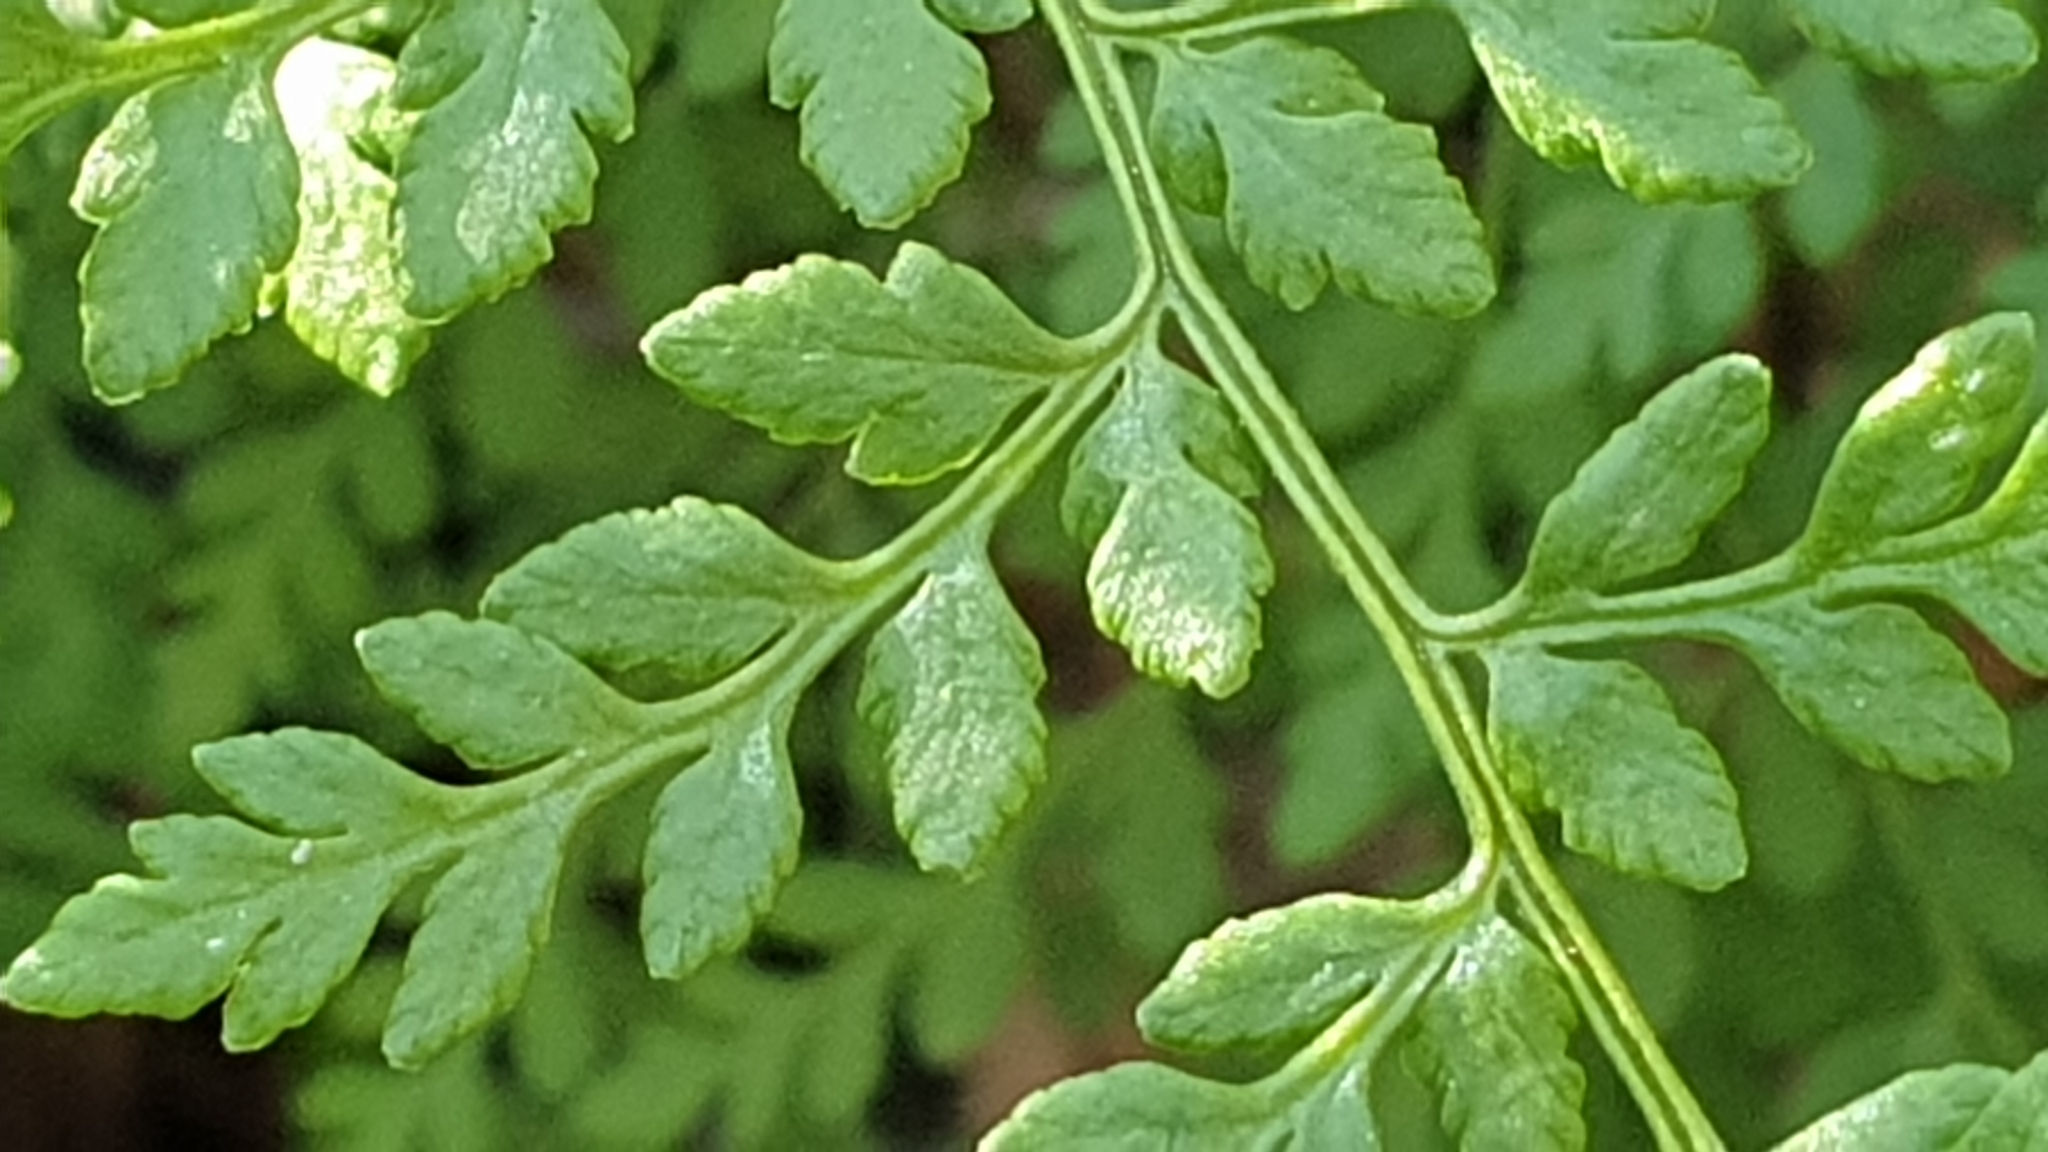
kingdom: Plantae
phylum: Tracheophyta
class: Polypodiopsida
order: Polypodiales
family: Pteridaceae
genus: Cheilanthes
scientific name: Cheilanthes austrotenuifolia
